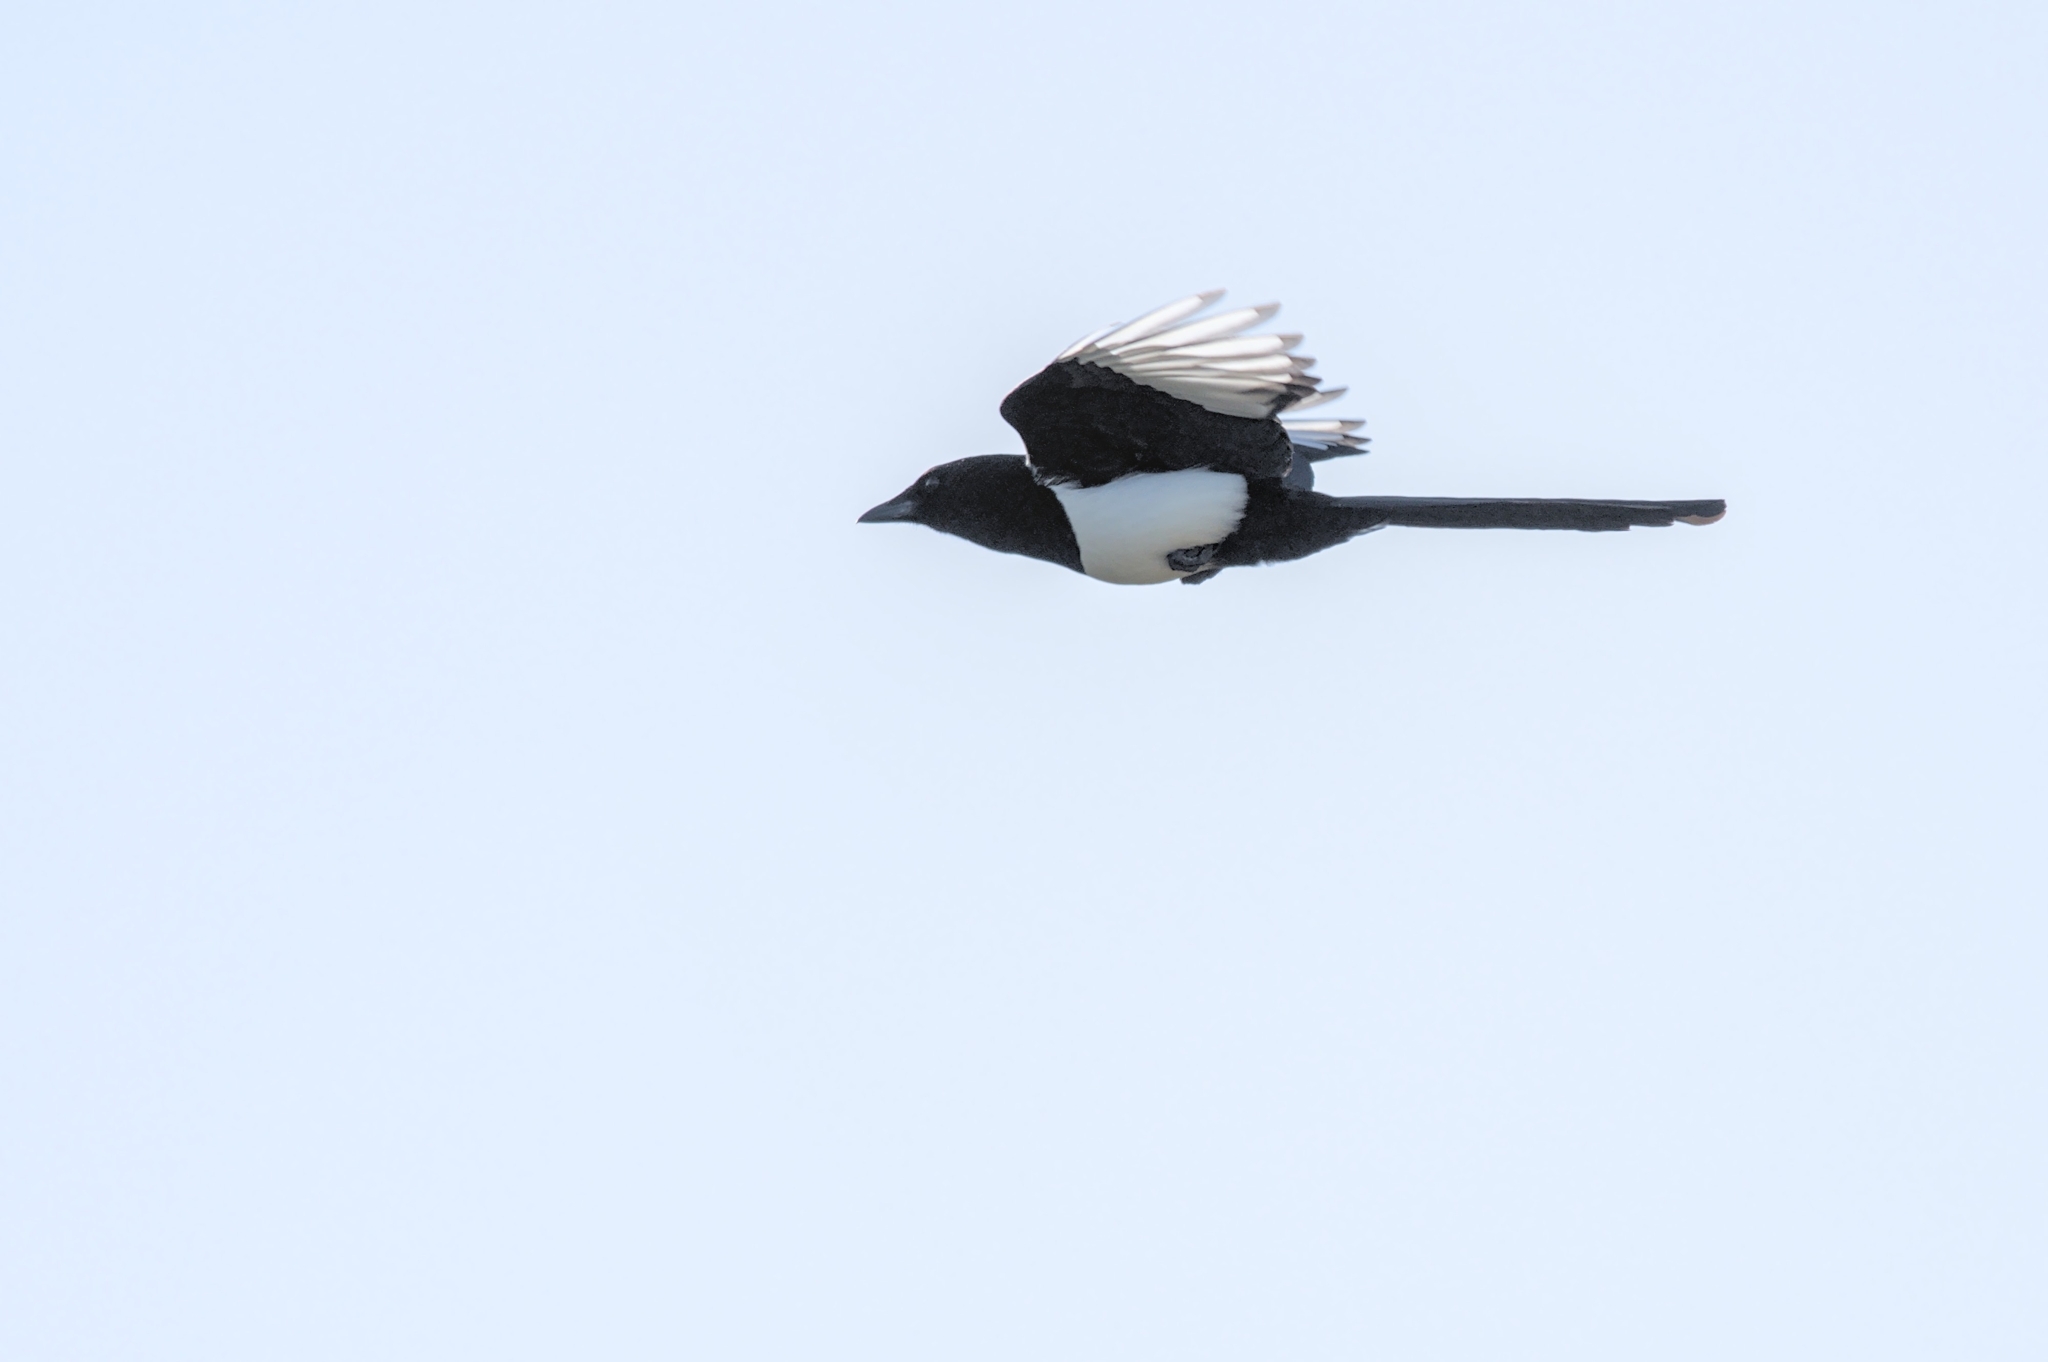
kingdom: Animalia
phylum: Chordata
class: Aves
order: Passeriformes
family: Corvidae
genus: Pica
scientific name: Pica pica
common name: Eurasian magpie
